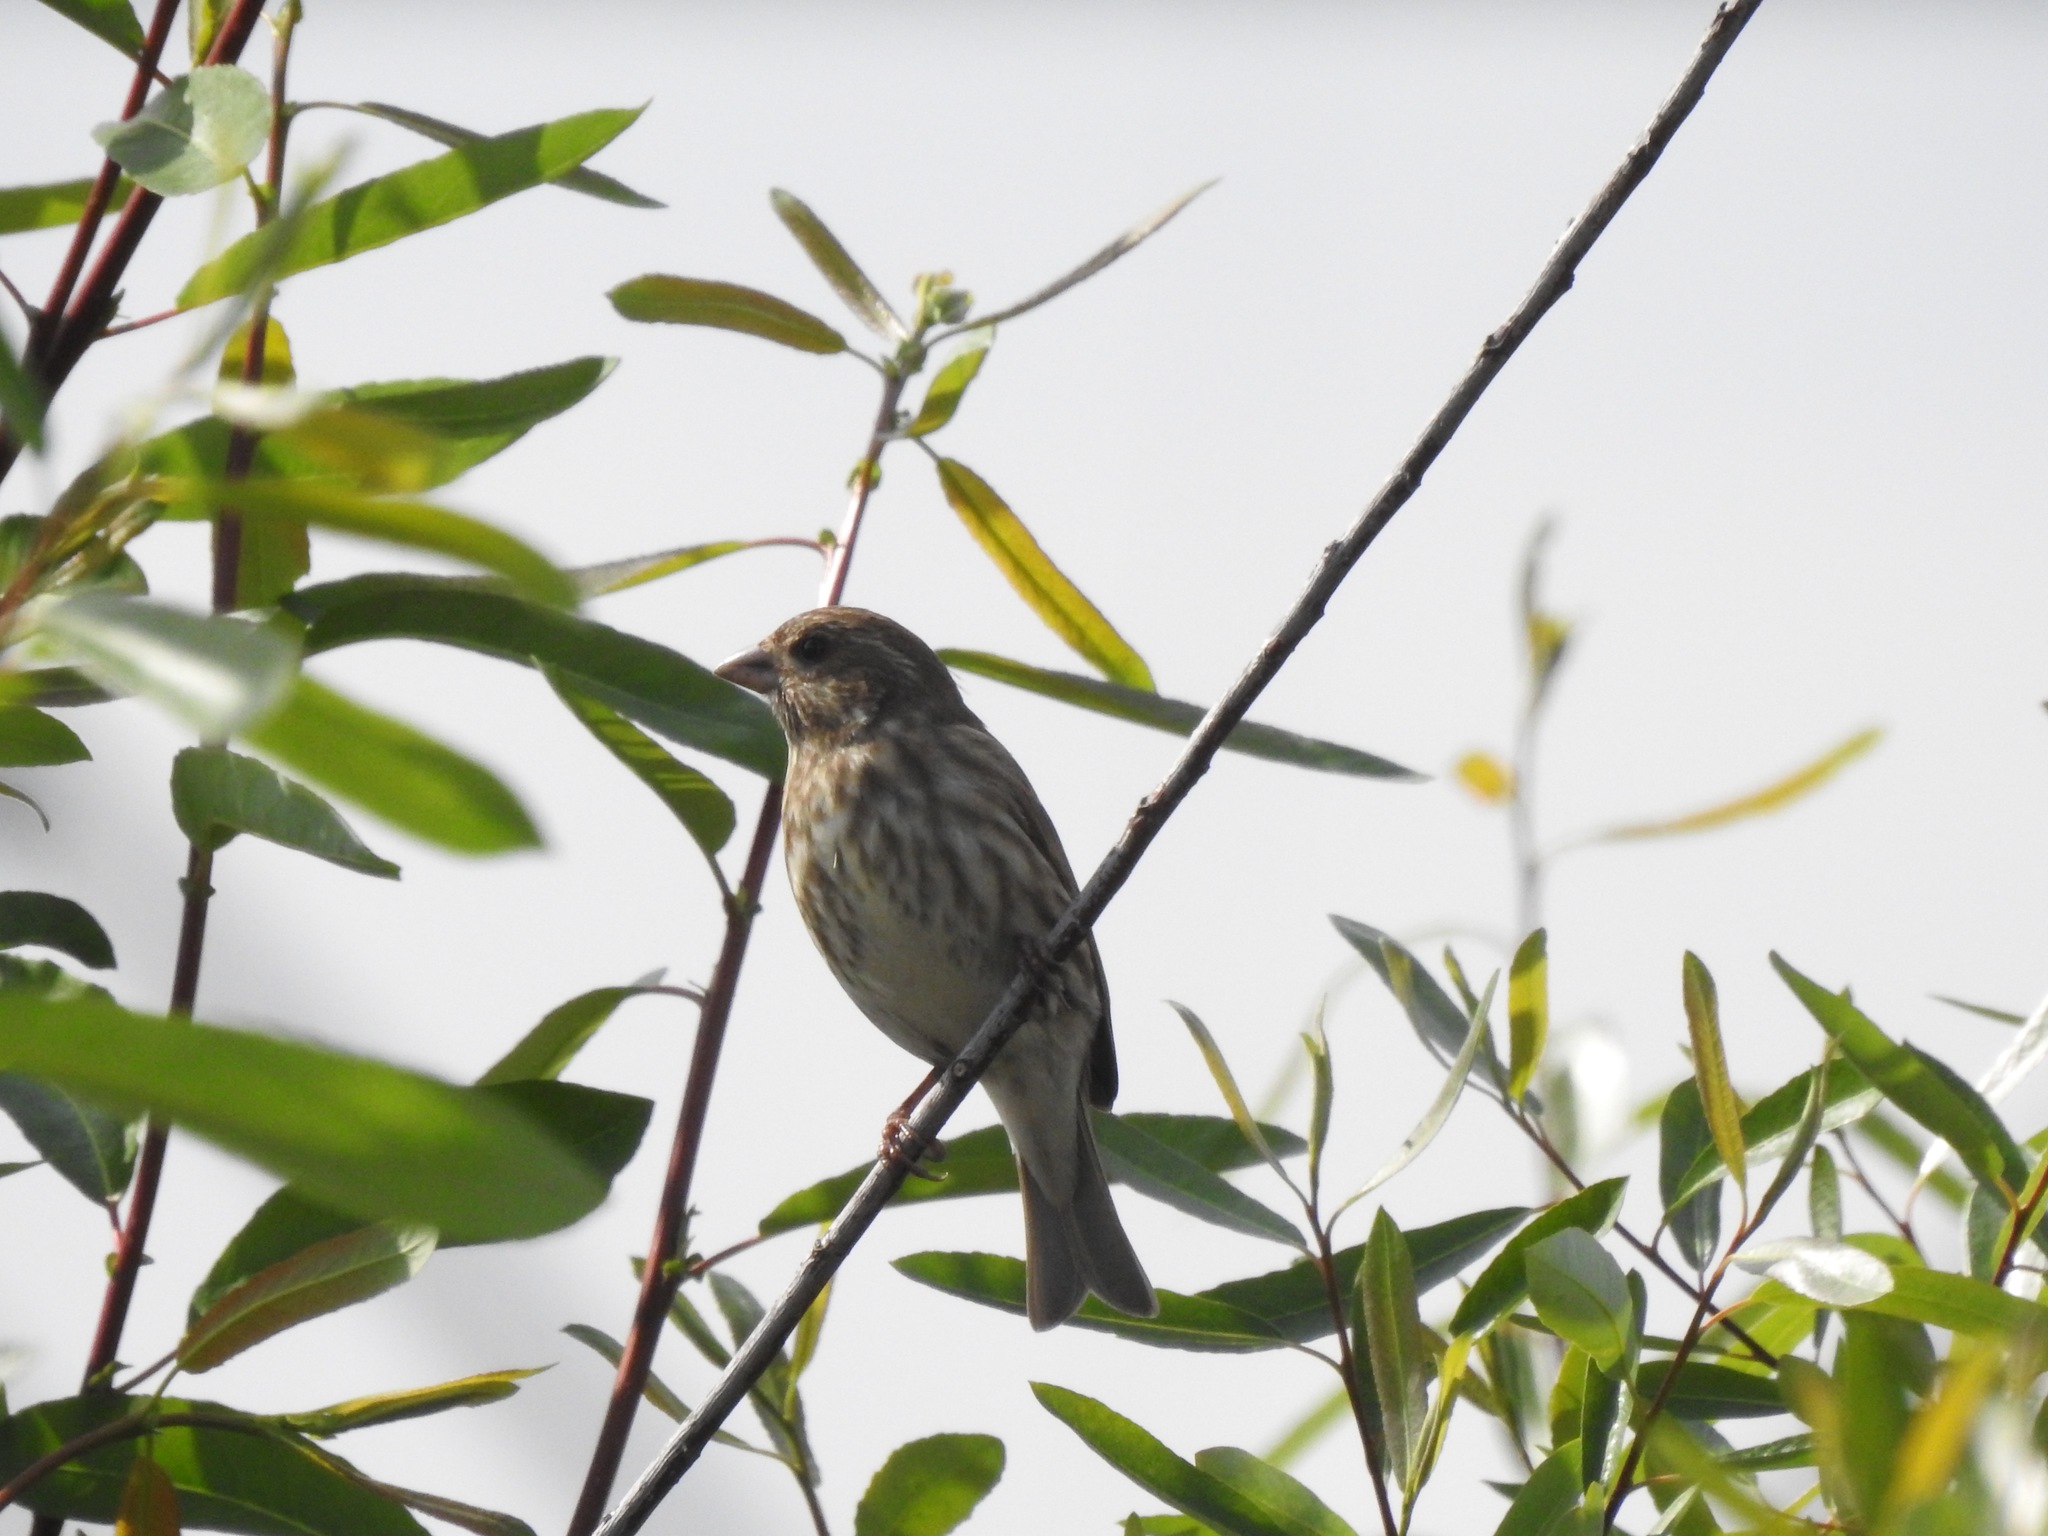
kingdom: Animalia
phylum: Chordata
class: Aves
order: Passeriformes
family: Fringillidae
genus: Haemorhous
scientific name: Haemorhous purpureus
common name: Purple finch
